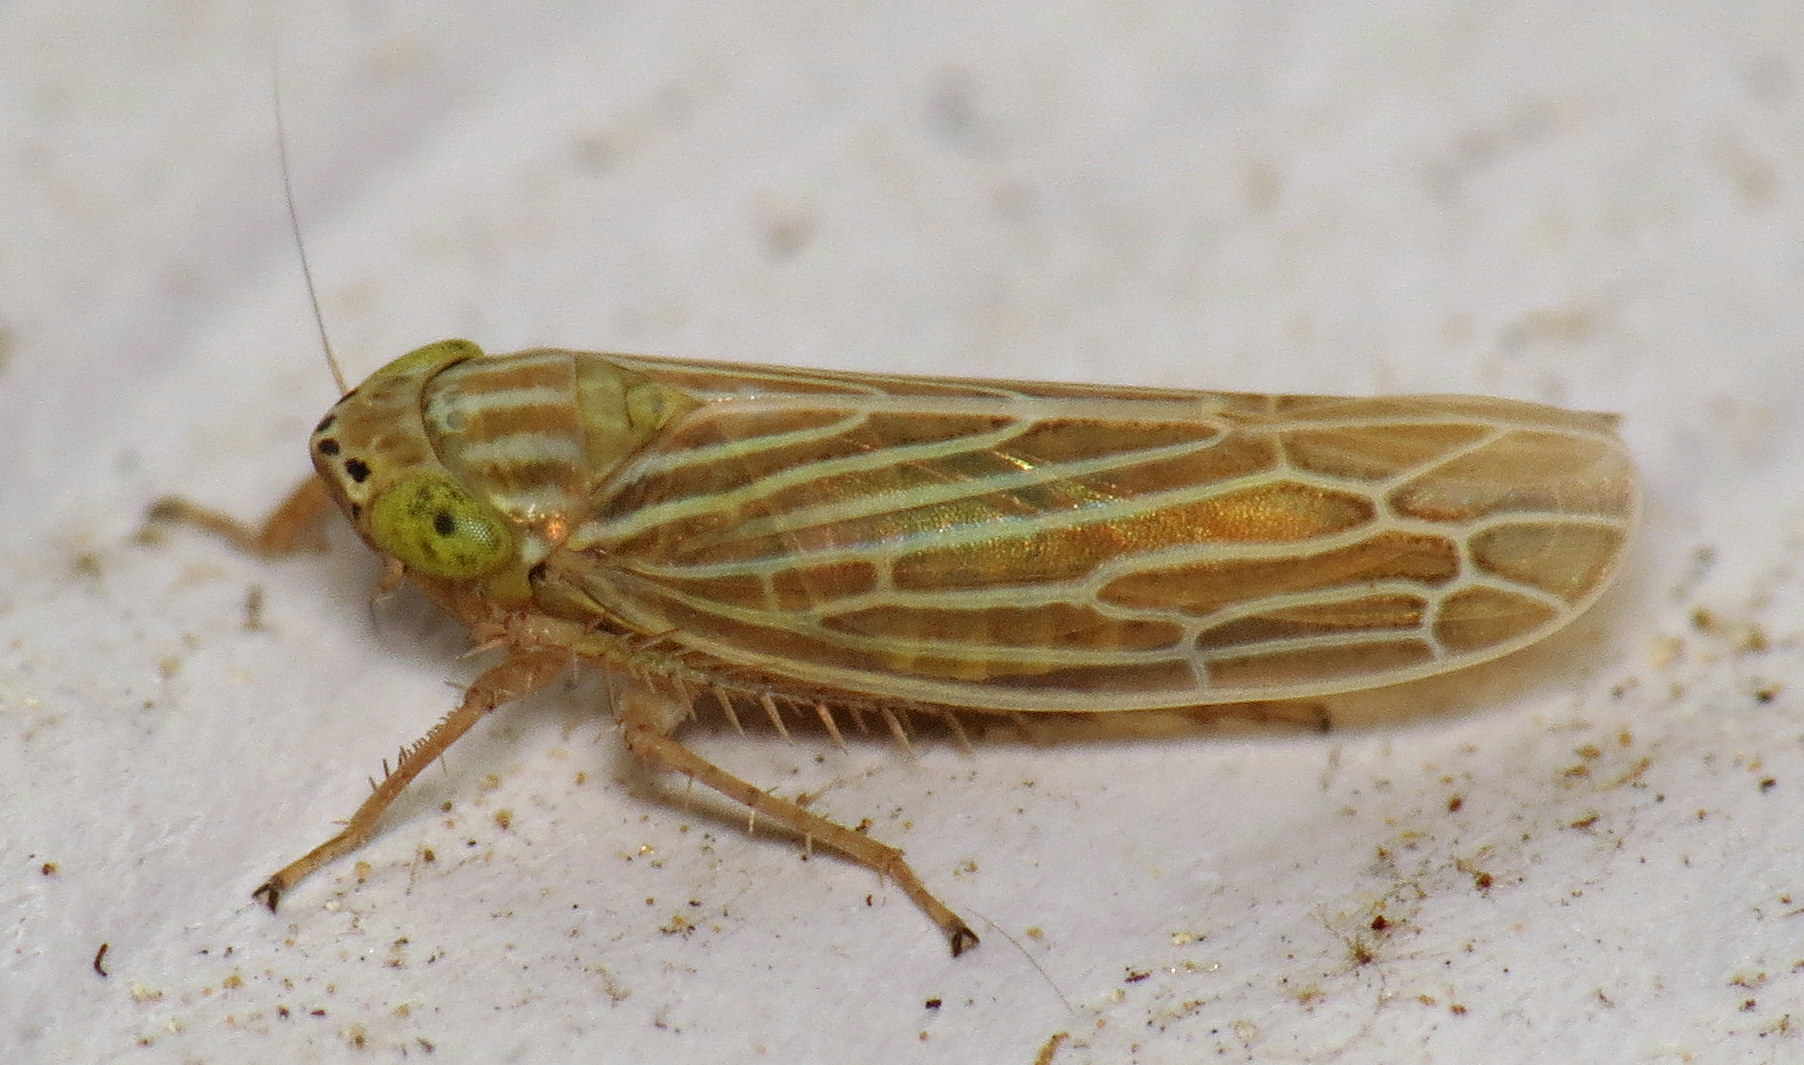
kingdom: Animalia
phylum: Arthropoda
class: Insecta
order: Hemiptera
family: Cicadellidae
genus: Graminella
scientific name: Graminella fitchii
